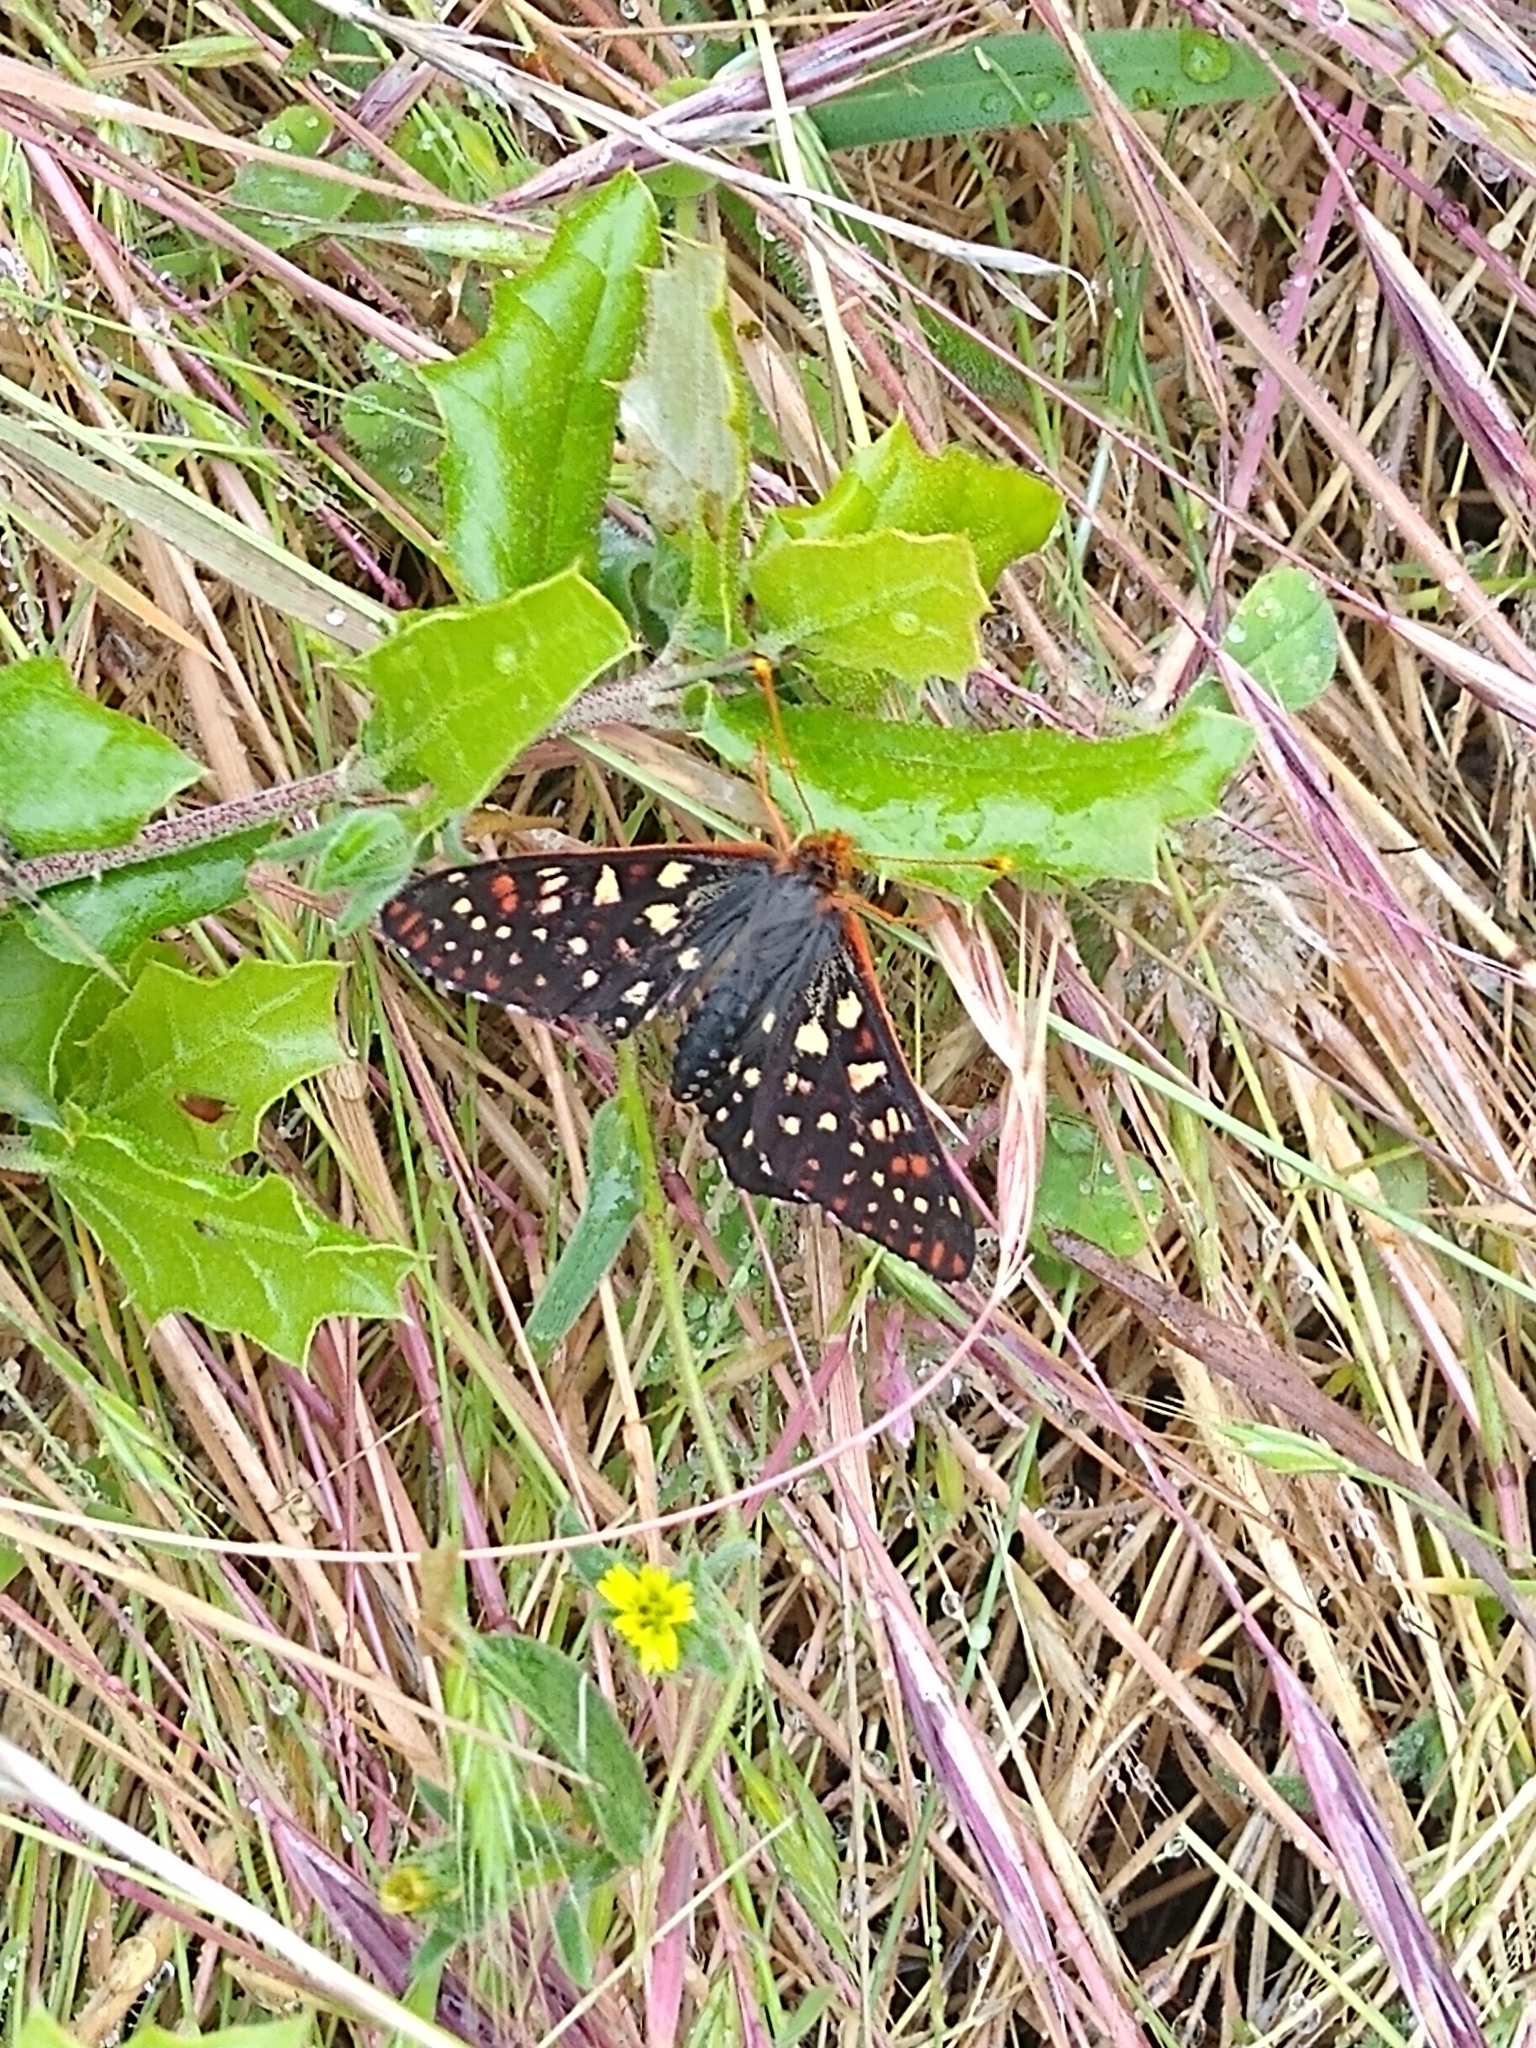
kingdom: Animalia
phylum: Arthropoda
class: Insecta
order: Lepidoptera
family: Nymphalidae
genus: Occidryas
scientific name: Occidryas chalcedona
